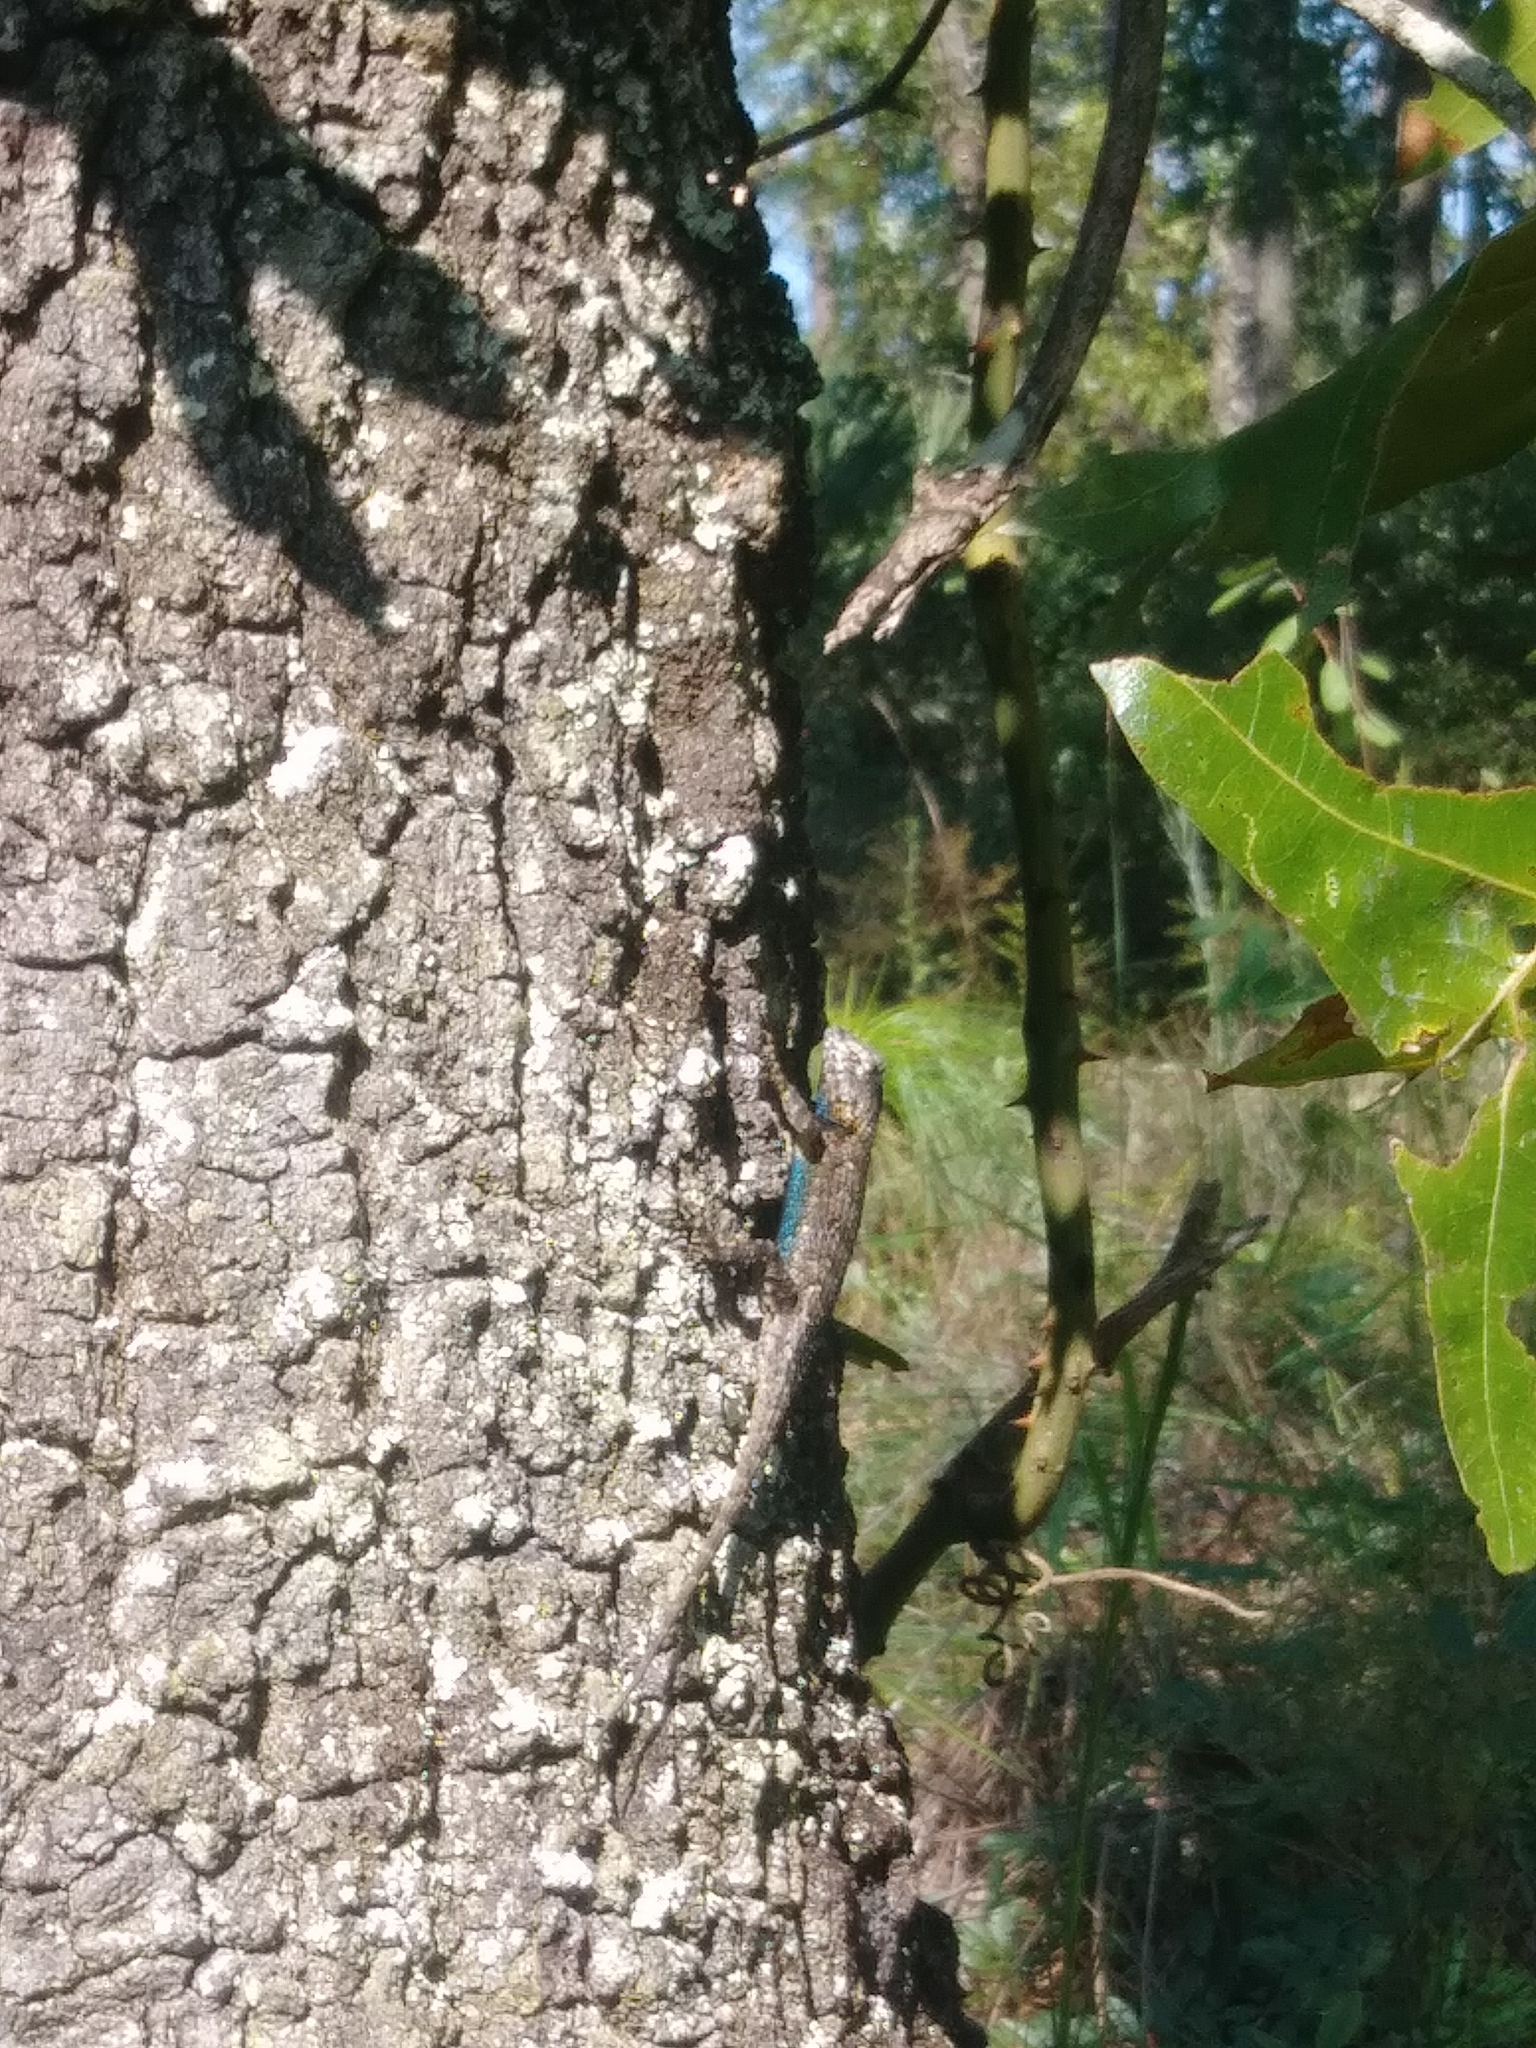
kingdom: Animalia
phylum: Chordata
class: Squamata
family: Phrynosomatidae
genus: Sceloporus
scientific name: Sceloporus undulatus
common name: Eastern fence lizard
